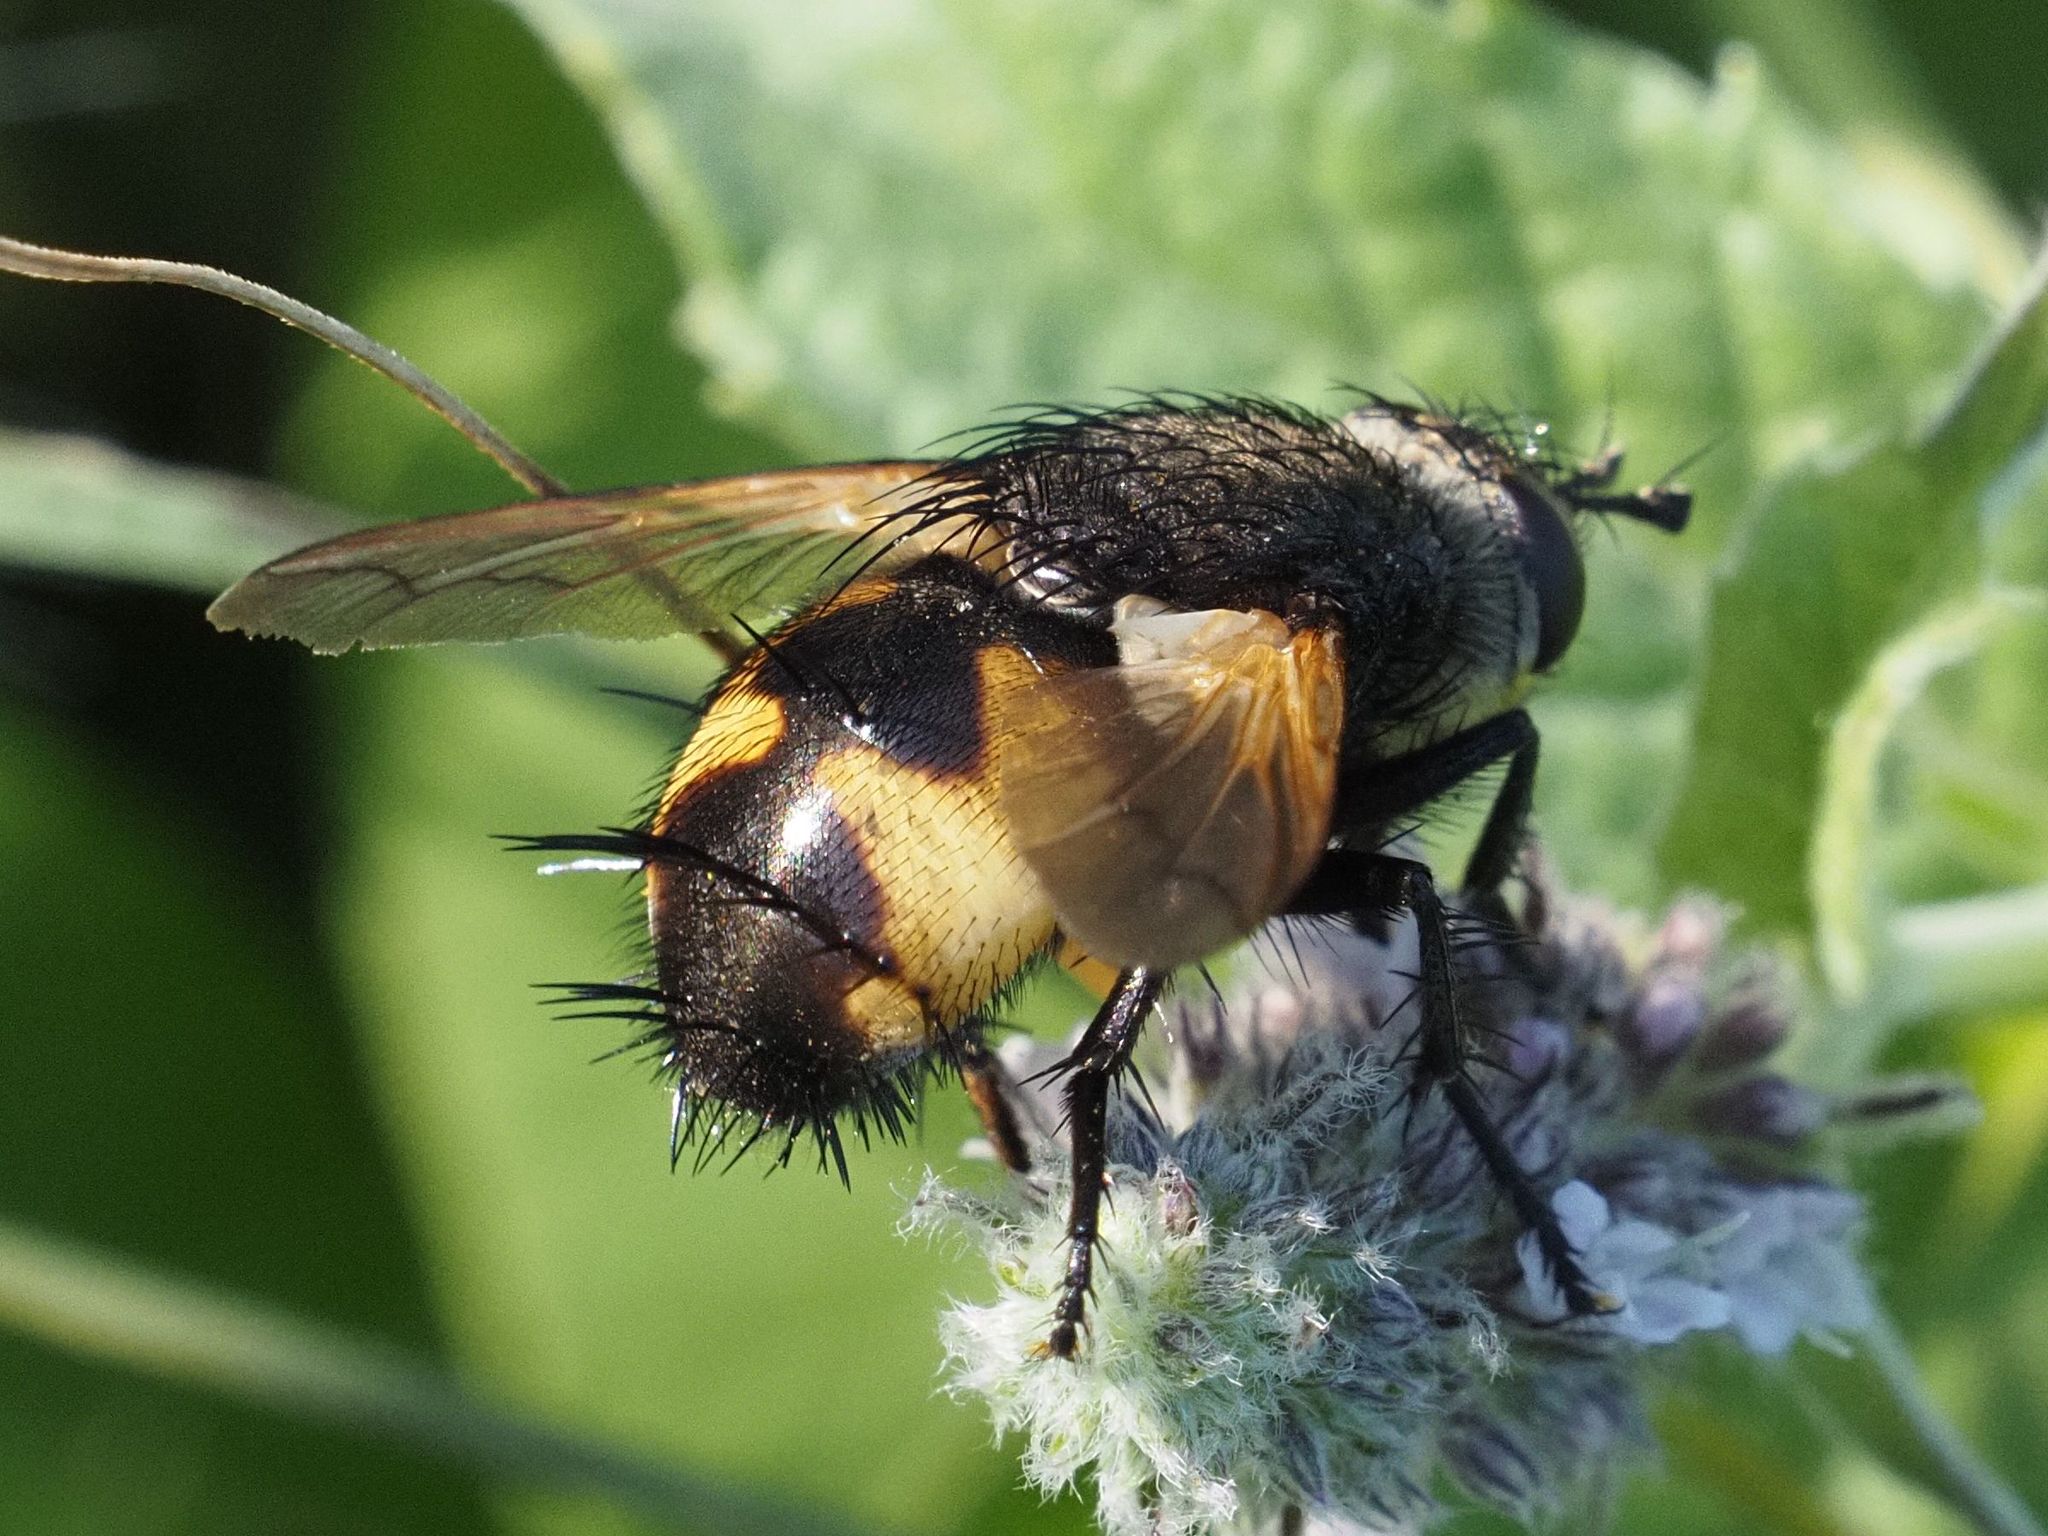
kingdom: Animalia
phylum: Arthropoda
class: Insecta
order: Diptera
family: Tachinidae
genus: Nowickia
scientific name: Nowickia ferox
